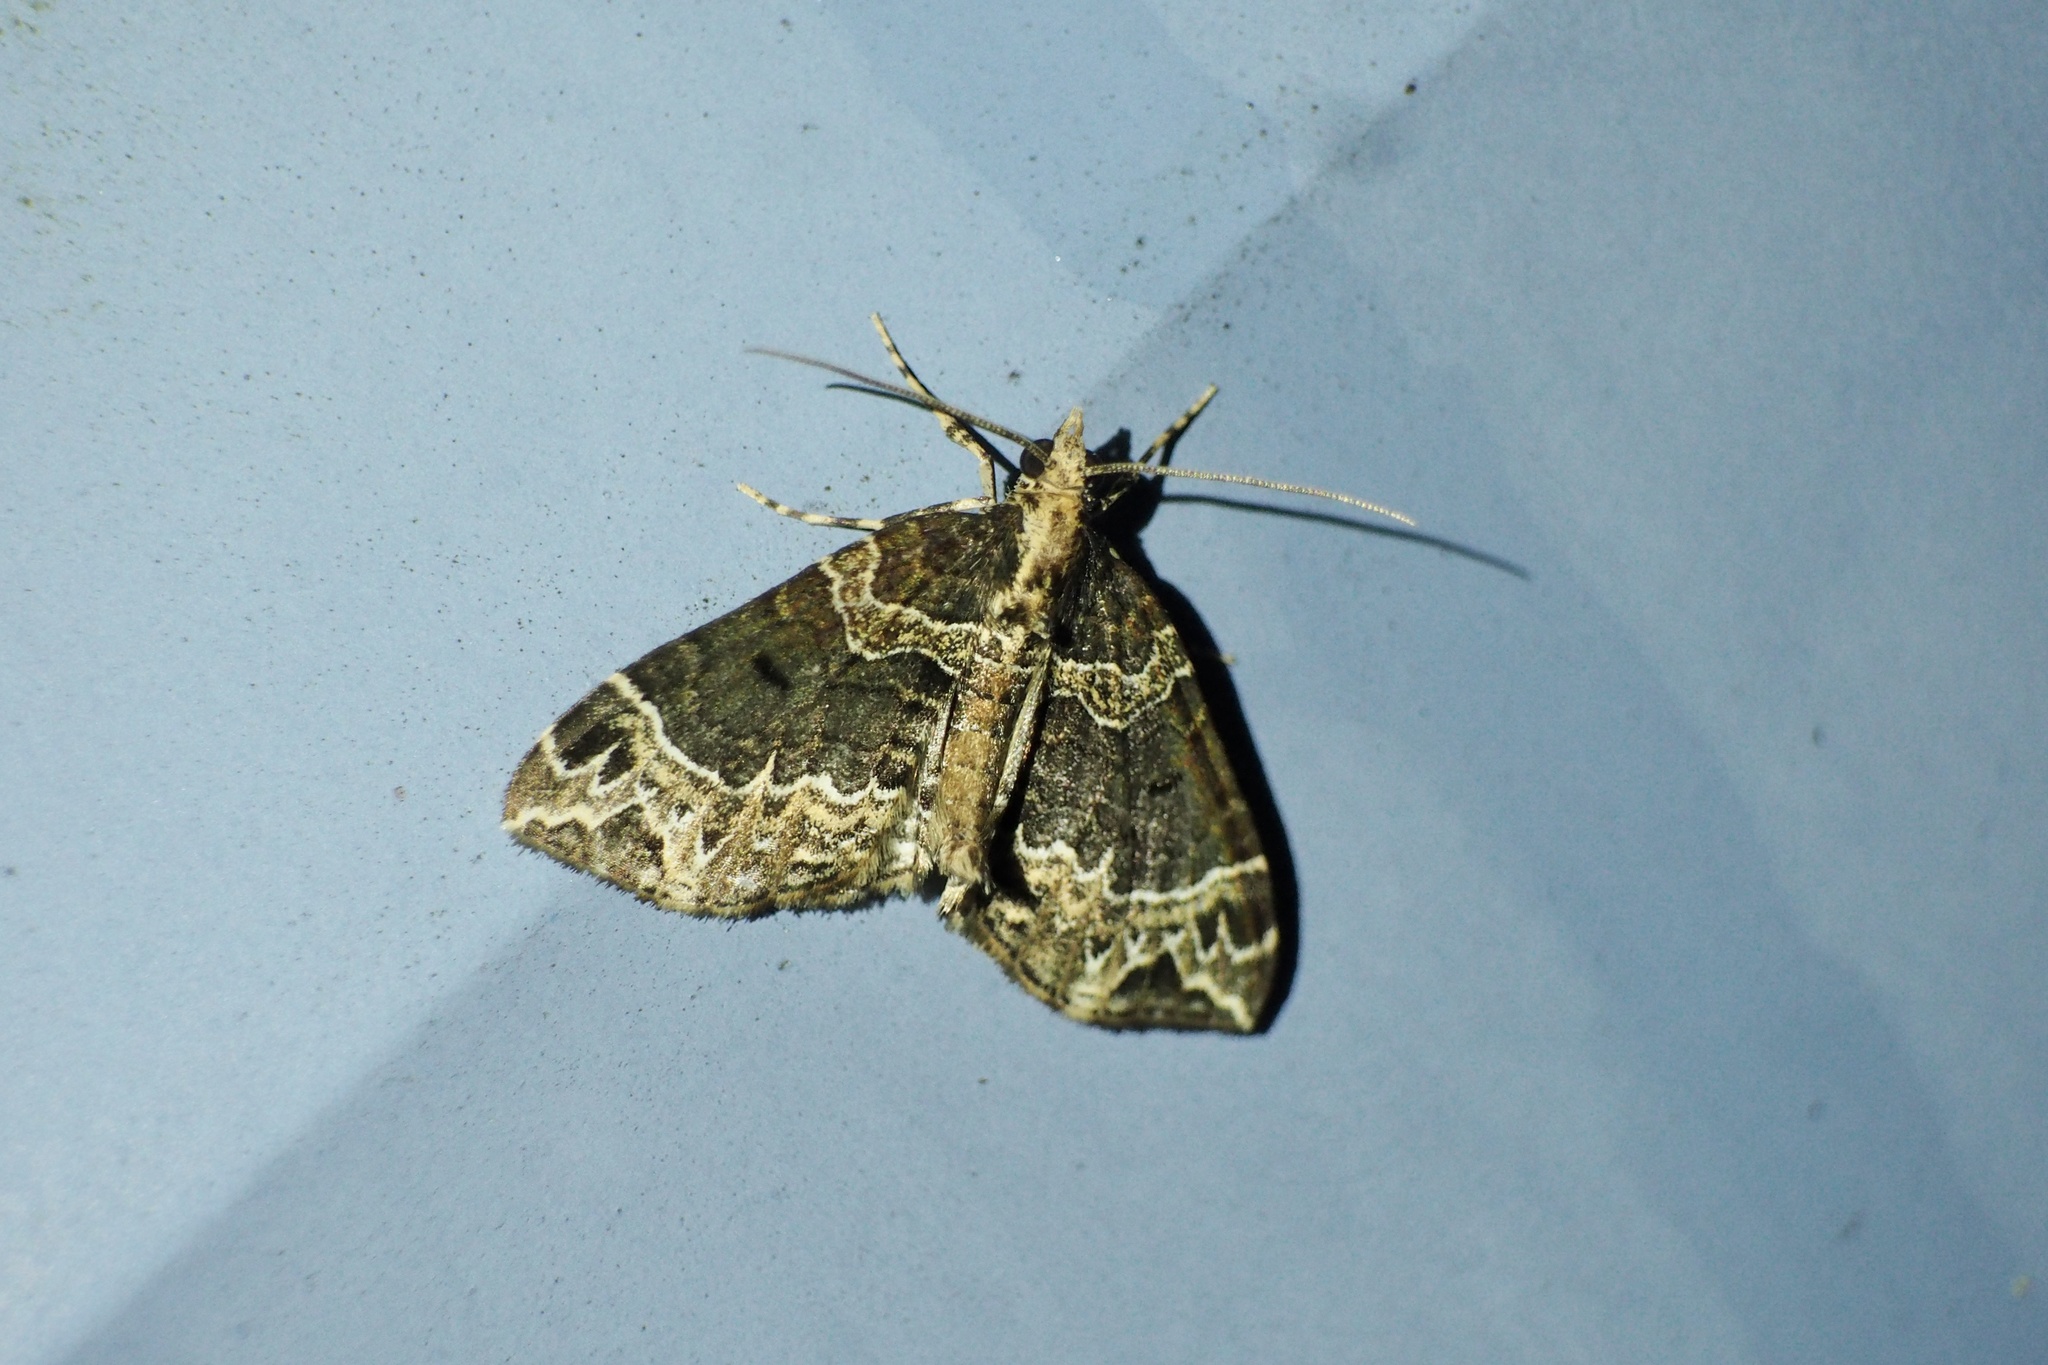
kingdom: Animalia
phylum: Arthropoda
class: Insecta
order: Lepidoptera
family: Geometridae
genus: Ecliptopera
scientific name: Ecliptopera umbrosaria
